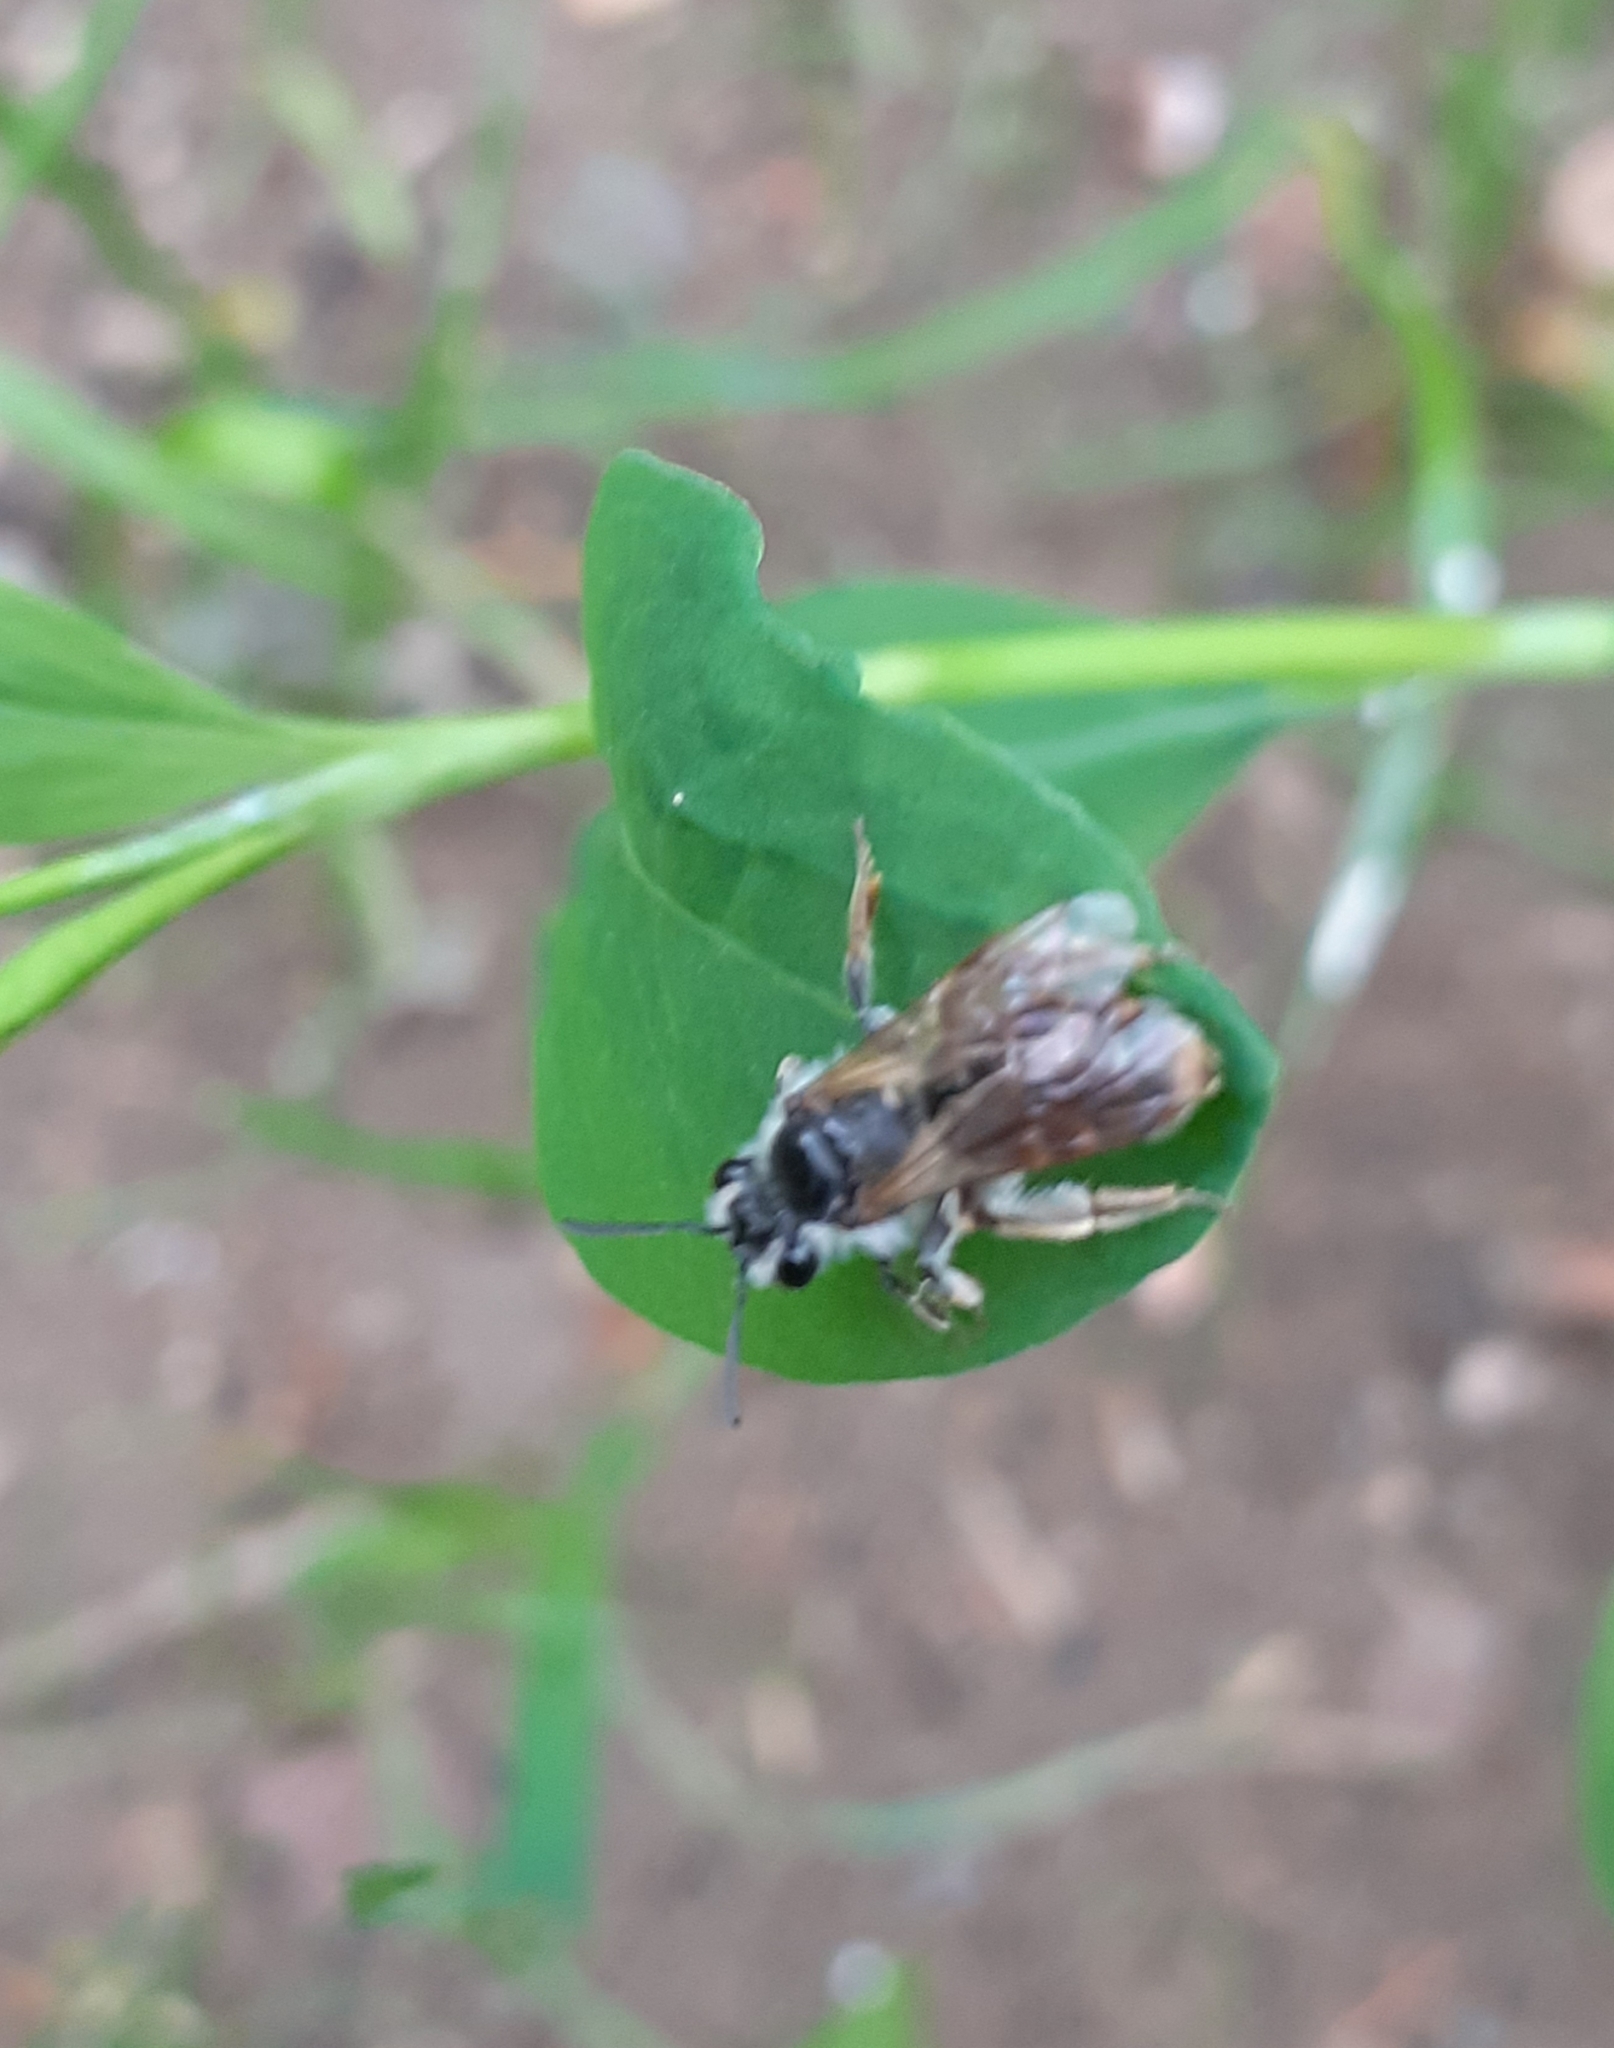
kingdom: Animalia
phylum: Arthropoda
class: Insecta
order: Hymenoptera
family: Andrenidae
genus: Andrena
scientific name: Andrena ventralis
